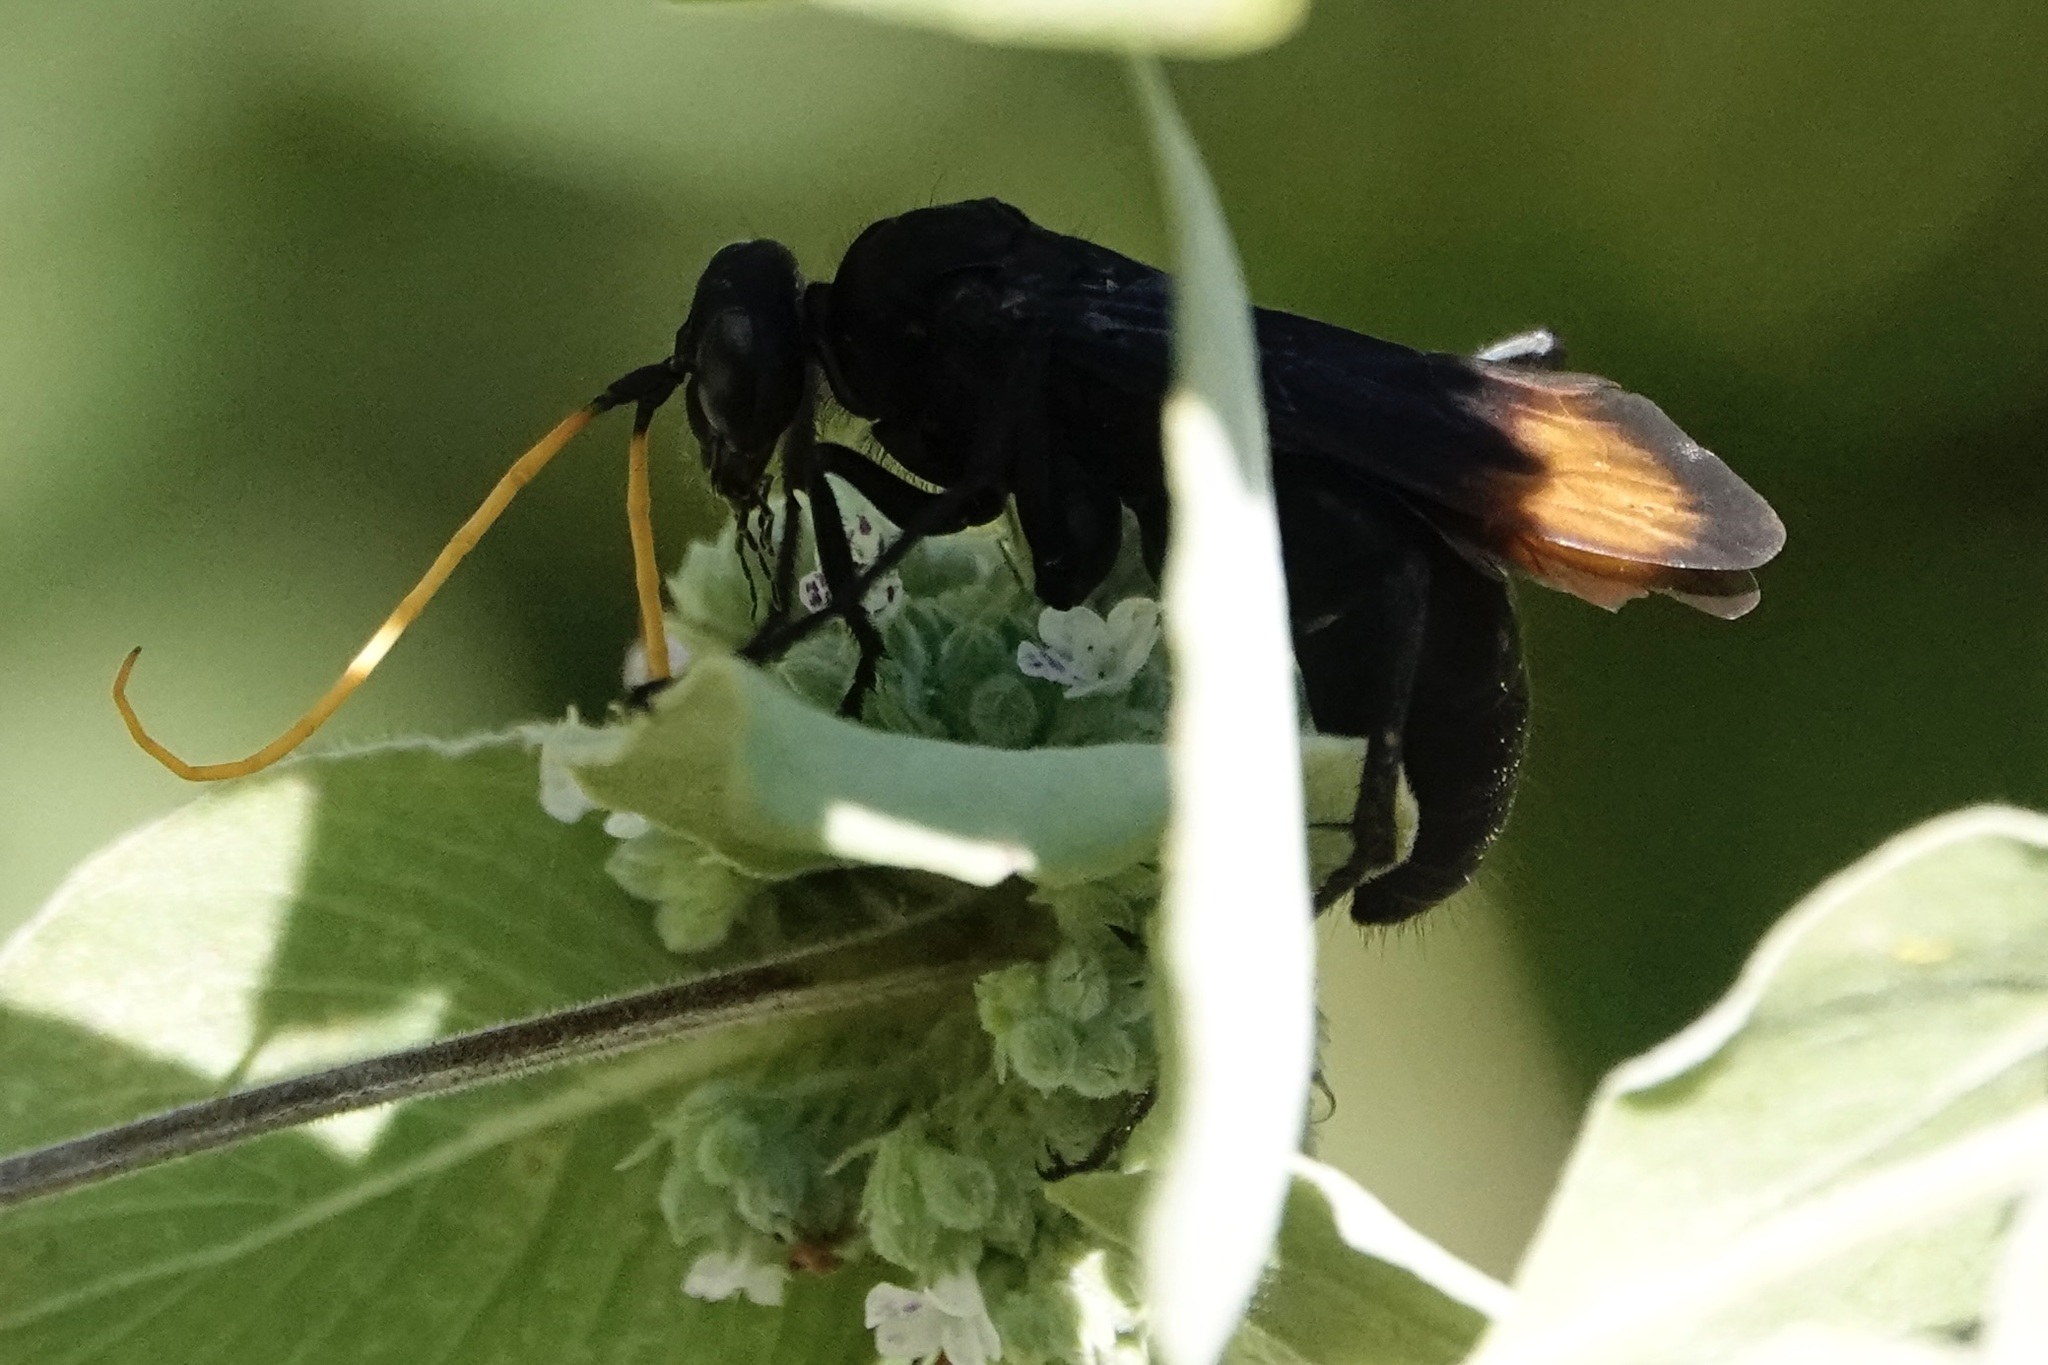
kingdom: Animalia
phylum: Arthropoda
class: Insecta
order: Hymenoptera
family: Pompilidae
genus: Entypus
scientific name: Entypus unifasciatus
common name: Eastern tawny-horned spider wasp
